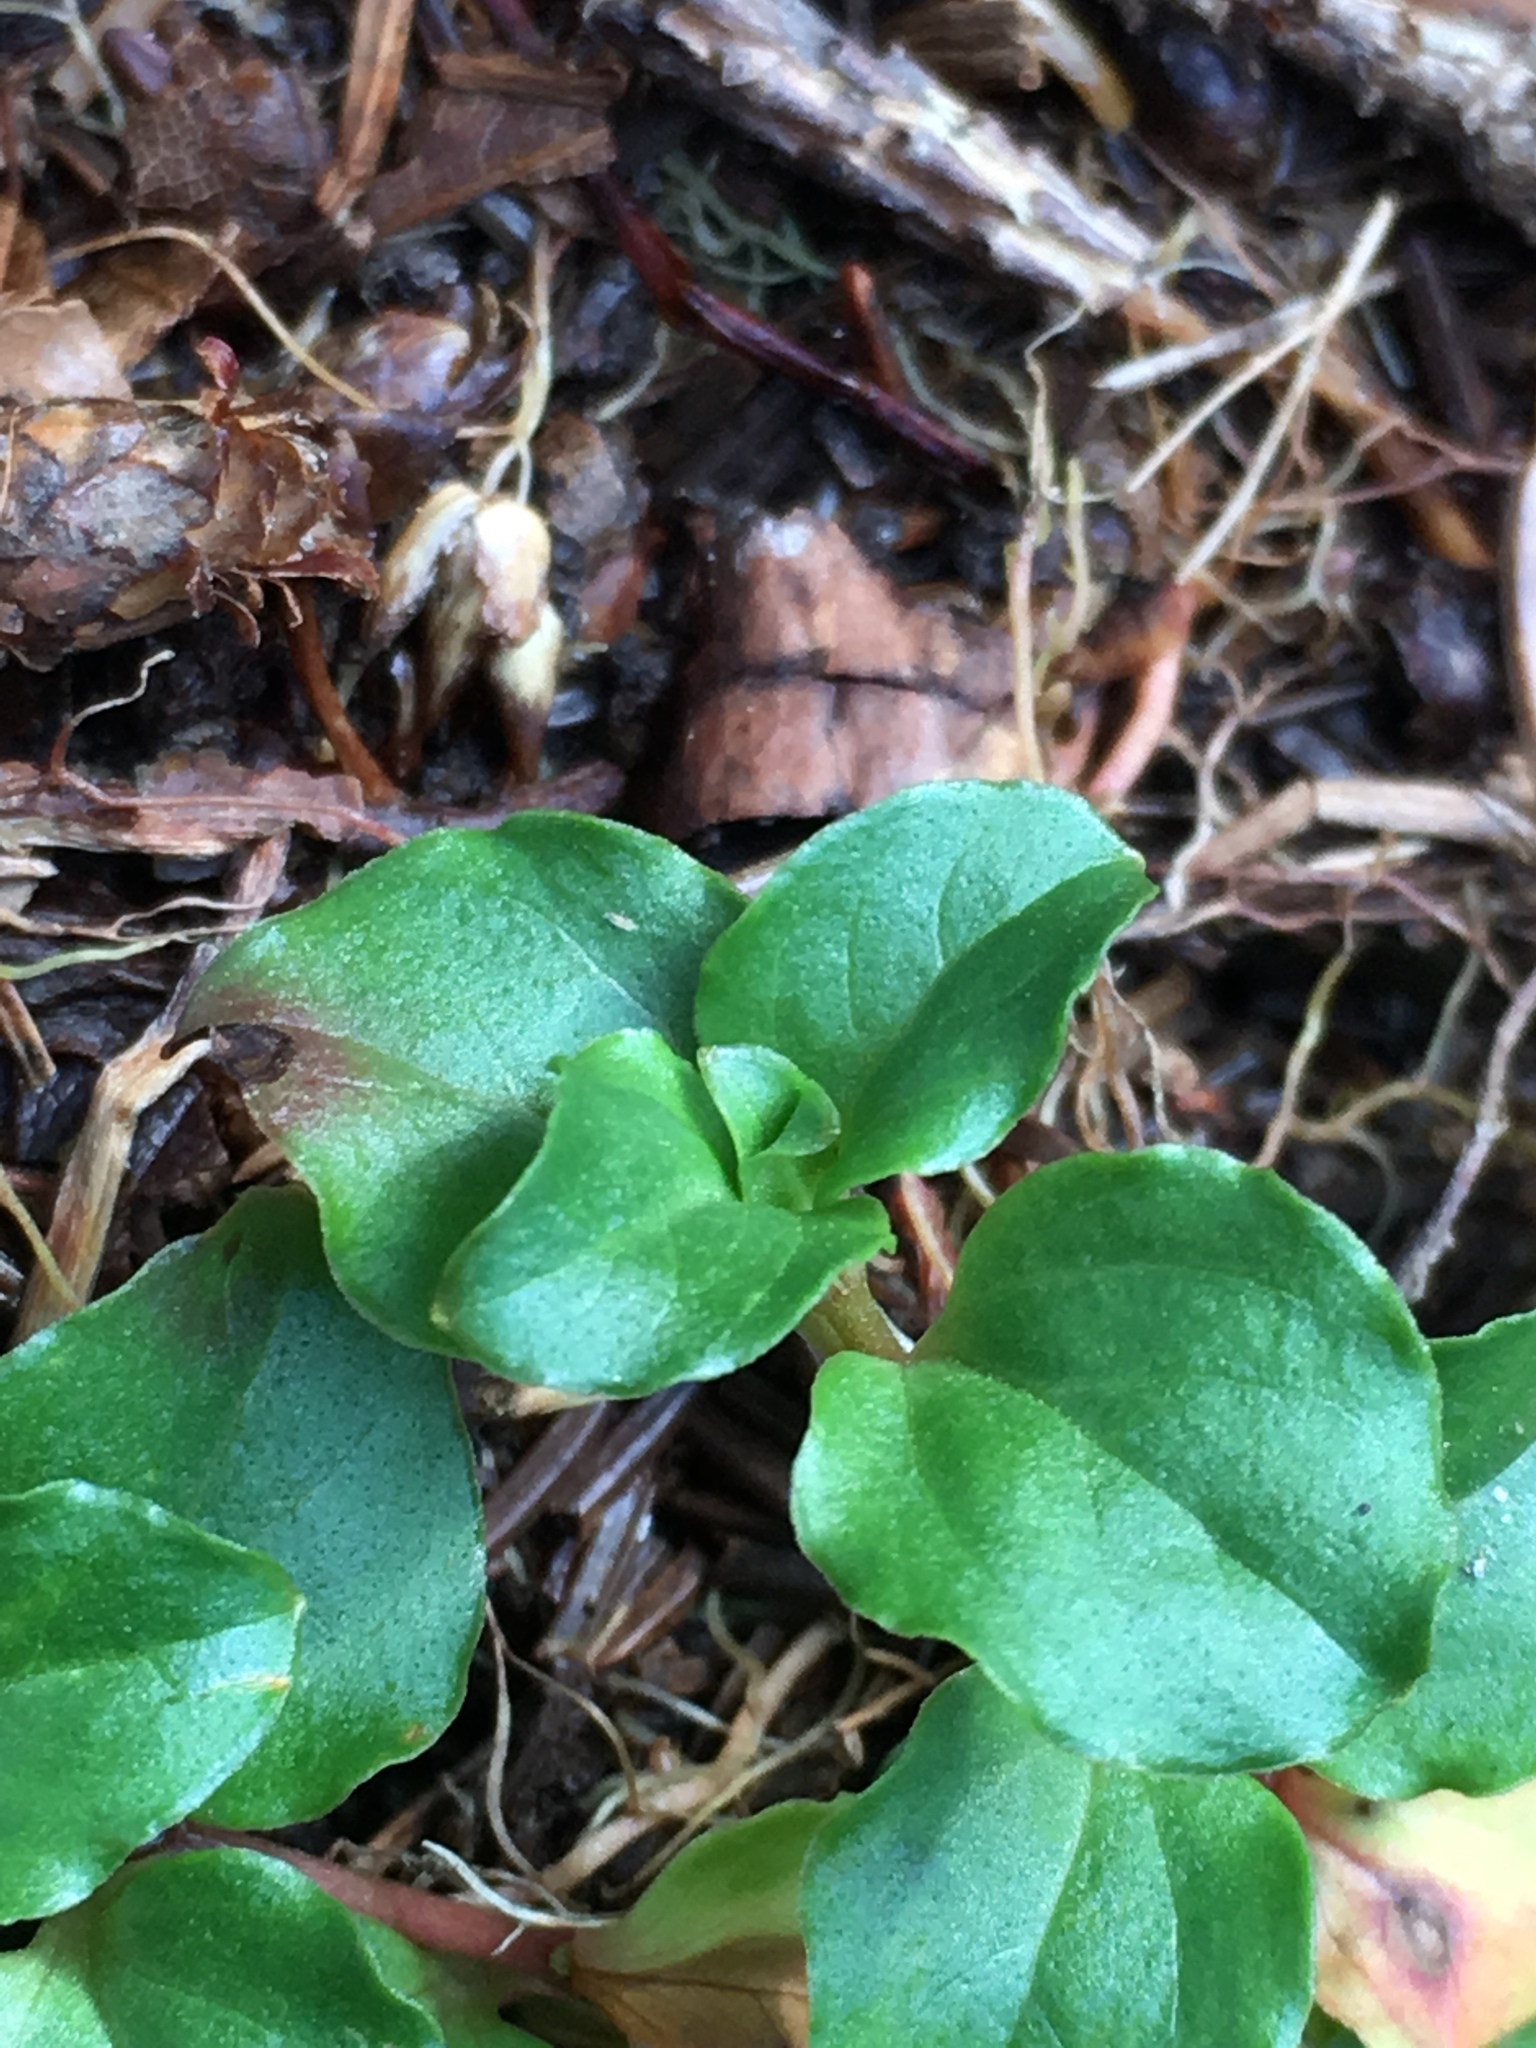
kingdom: Plantae
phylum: Tracheophyta
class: Magnoliopsida
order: Ericales
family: Primulaceae
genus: Lysimachia
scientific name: Lysimachia nummularia
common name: Moneywort
